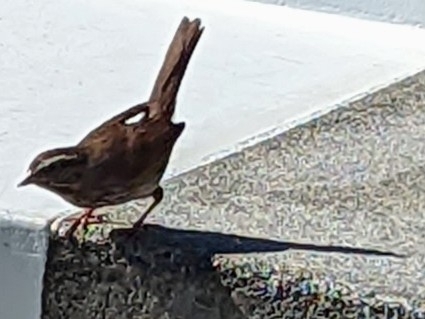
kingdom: Animalia
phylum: Chordata
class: Aves
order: Passeriformes
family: Passerellidae
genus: Melospiza
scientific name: Melospiza melodia
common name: Song sparrow
